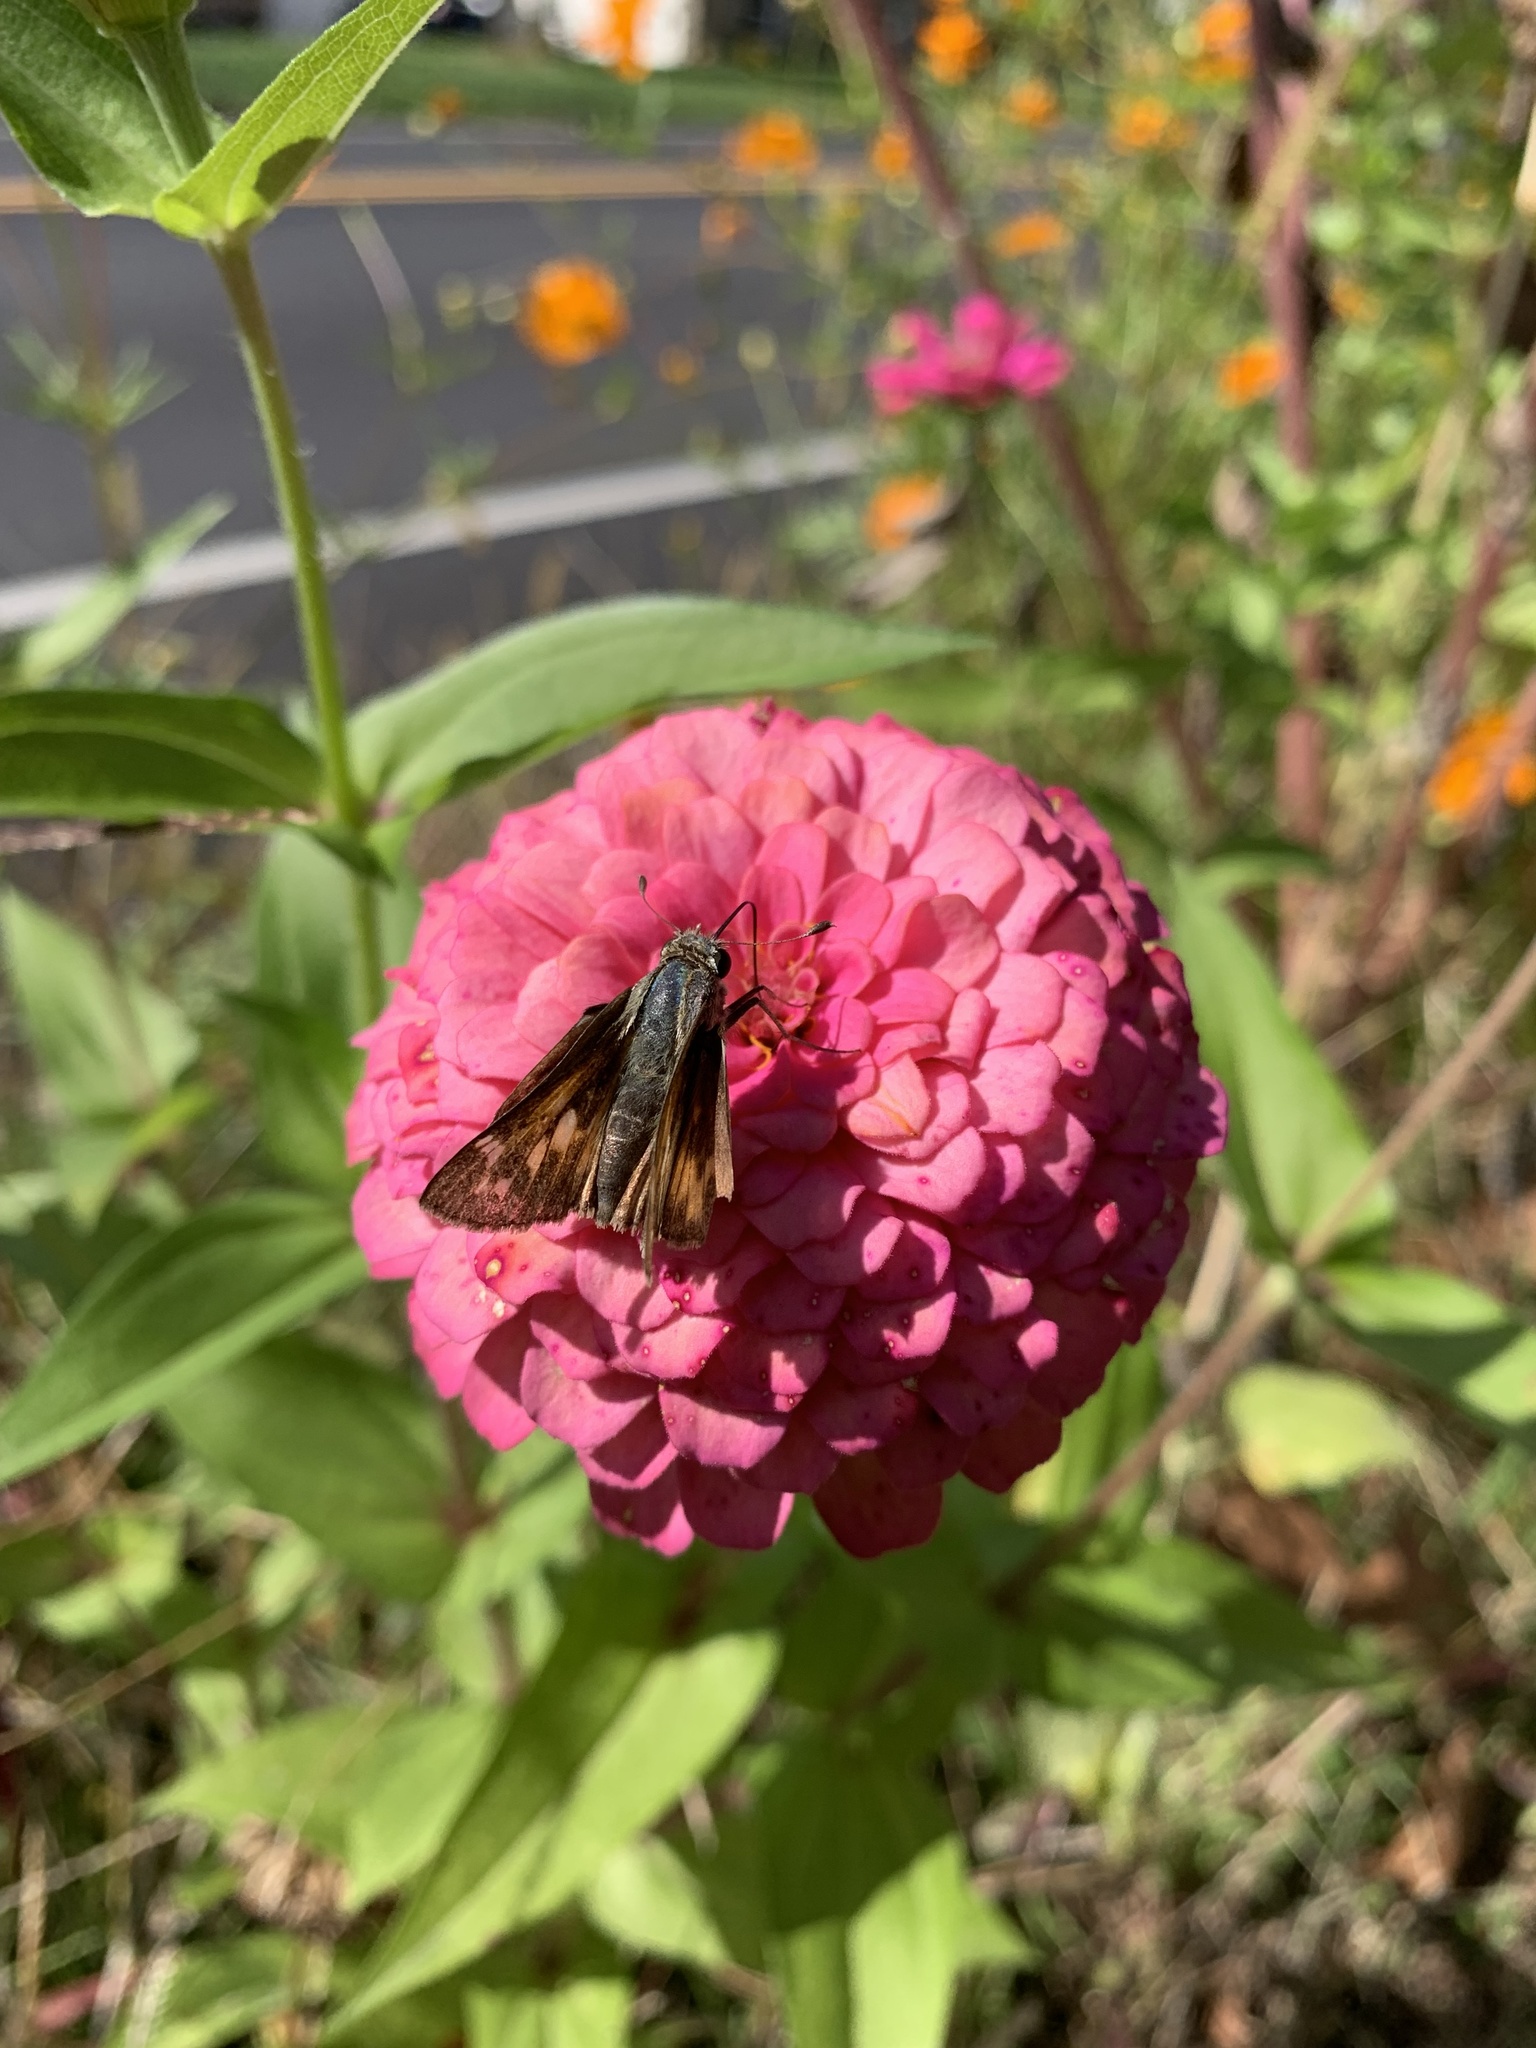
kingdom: Animalia
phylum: Arthropoda
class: Insecta
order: Lepidoptera
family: Hesperiidae
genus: Atalopedes
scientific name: Atalopedes
